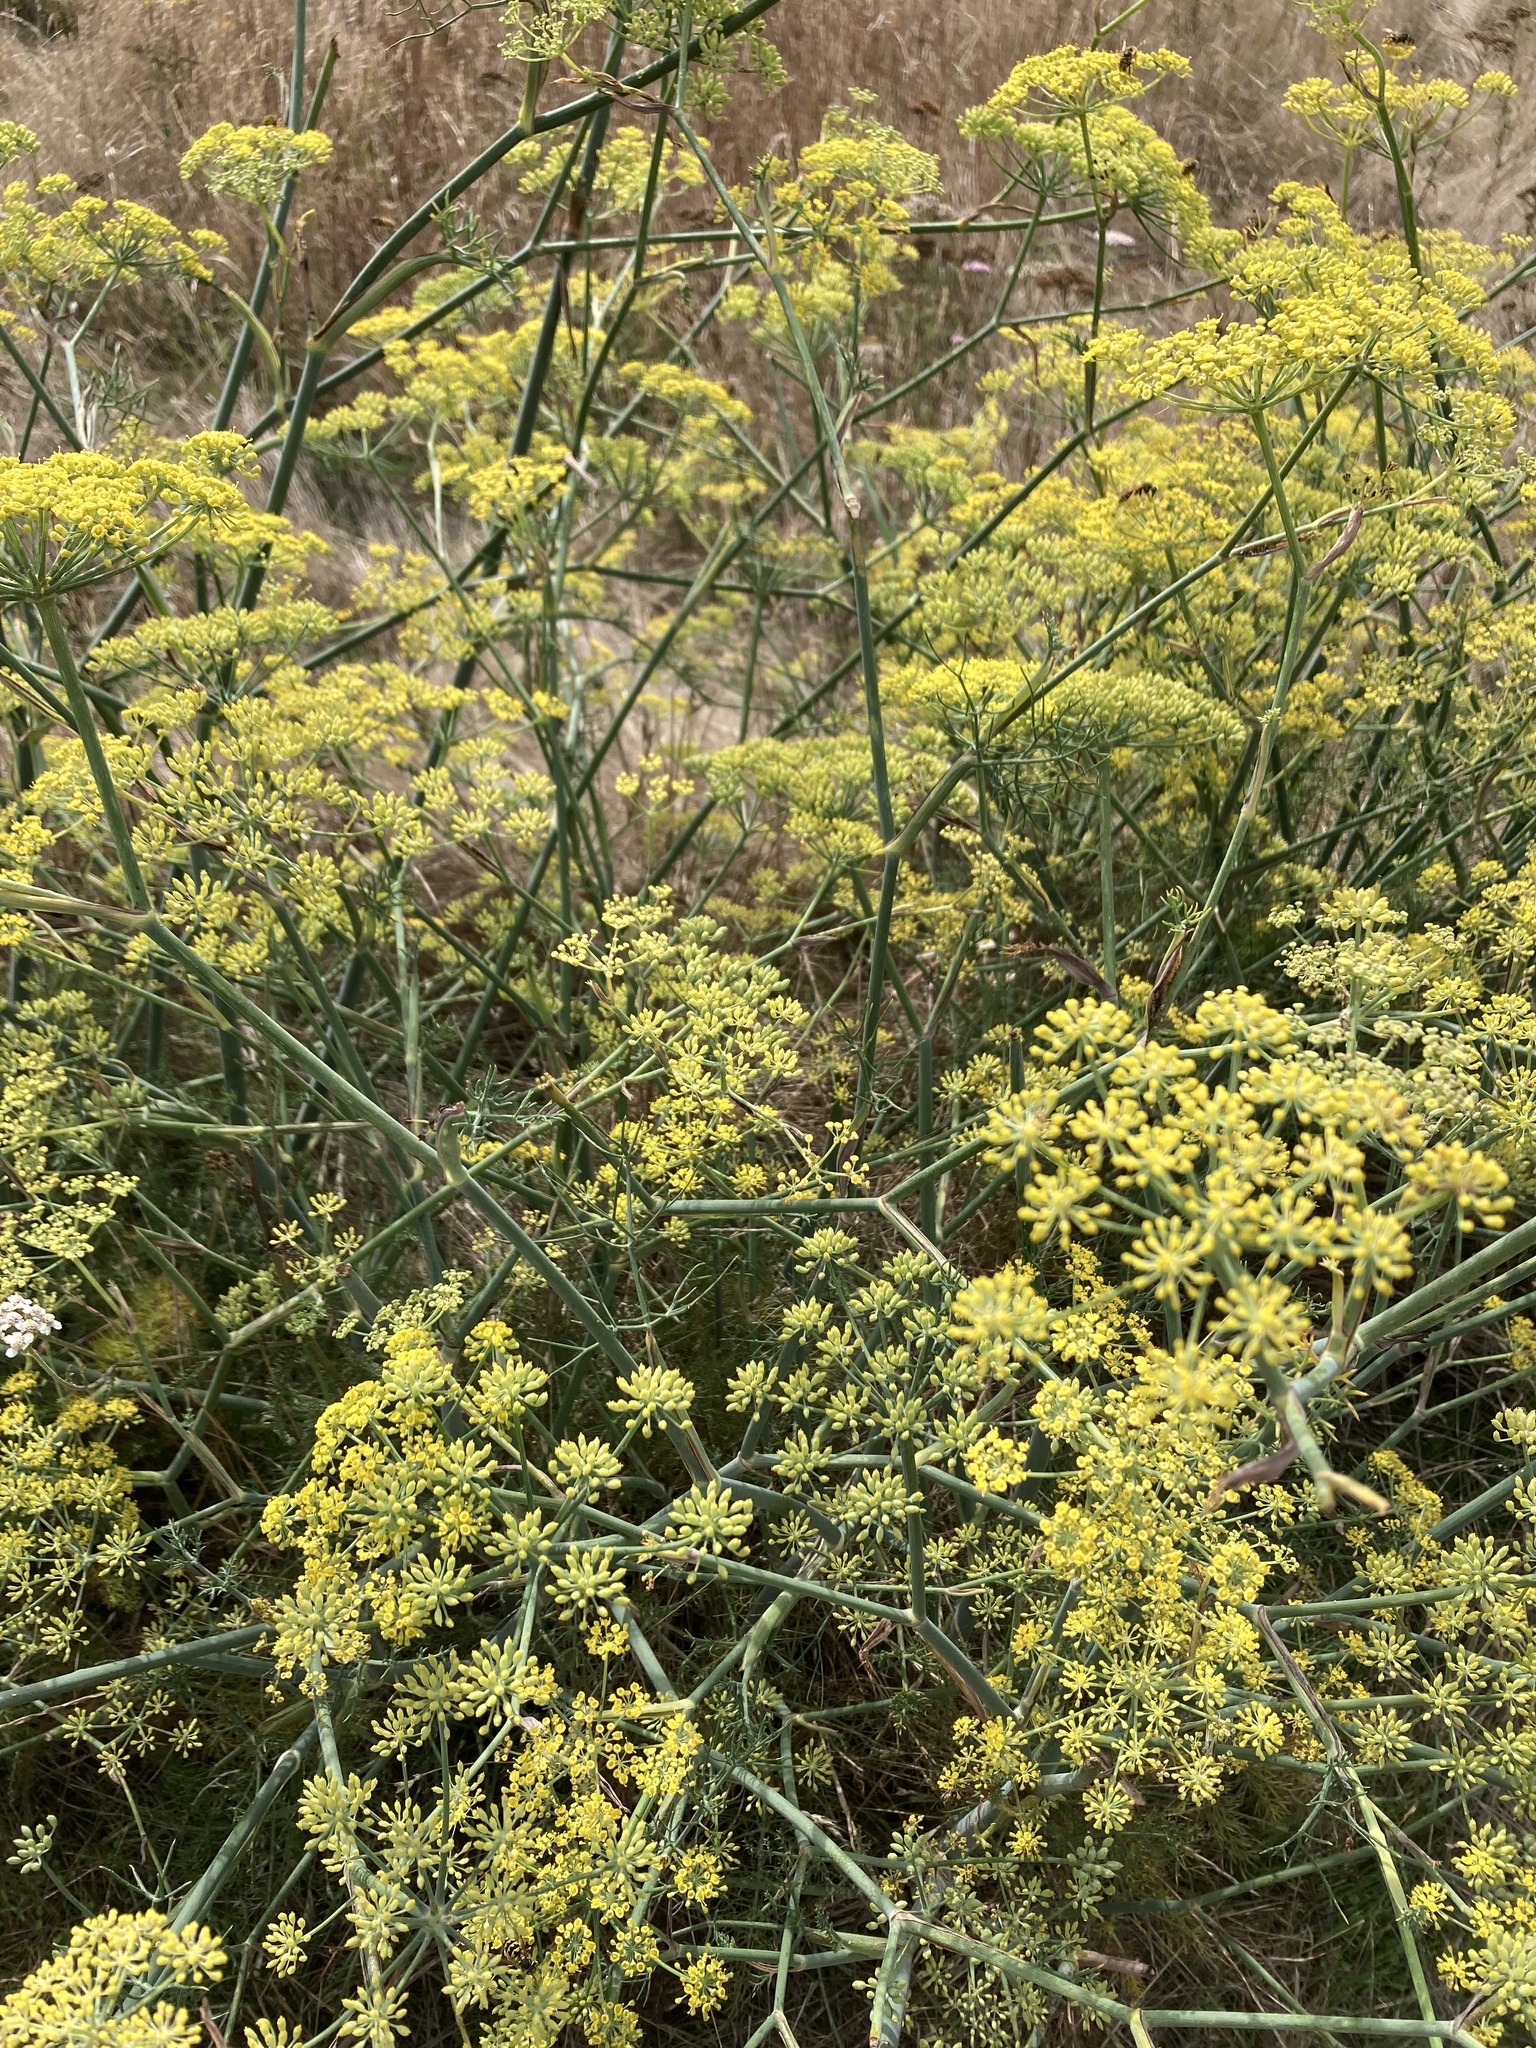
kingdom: Plantae
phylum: Tracheophyta
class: Magnoliopsida
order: Apiales
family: Apiaceae
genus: Foeniculum
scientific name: Foeniculum vulgare
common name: Fennel
